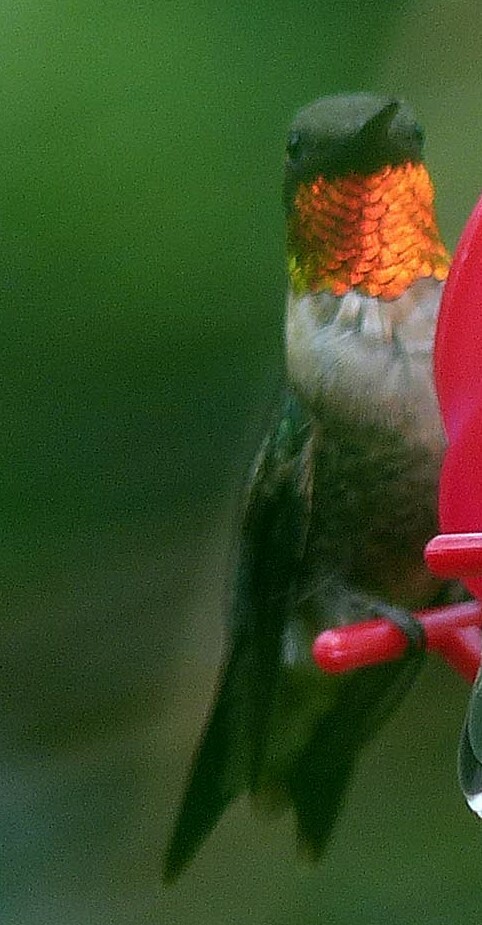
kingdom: Animalia
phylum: Chordata
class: Aves
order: Apodiformes
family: Trochilidae
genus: Archilochus
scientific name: Archilochus colubris
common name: Ruby-throated hummingbird
